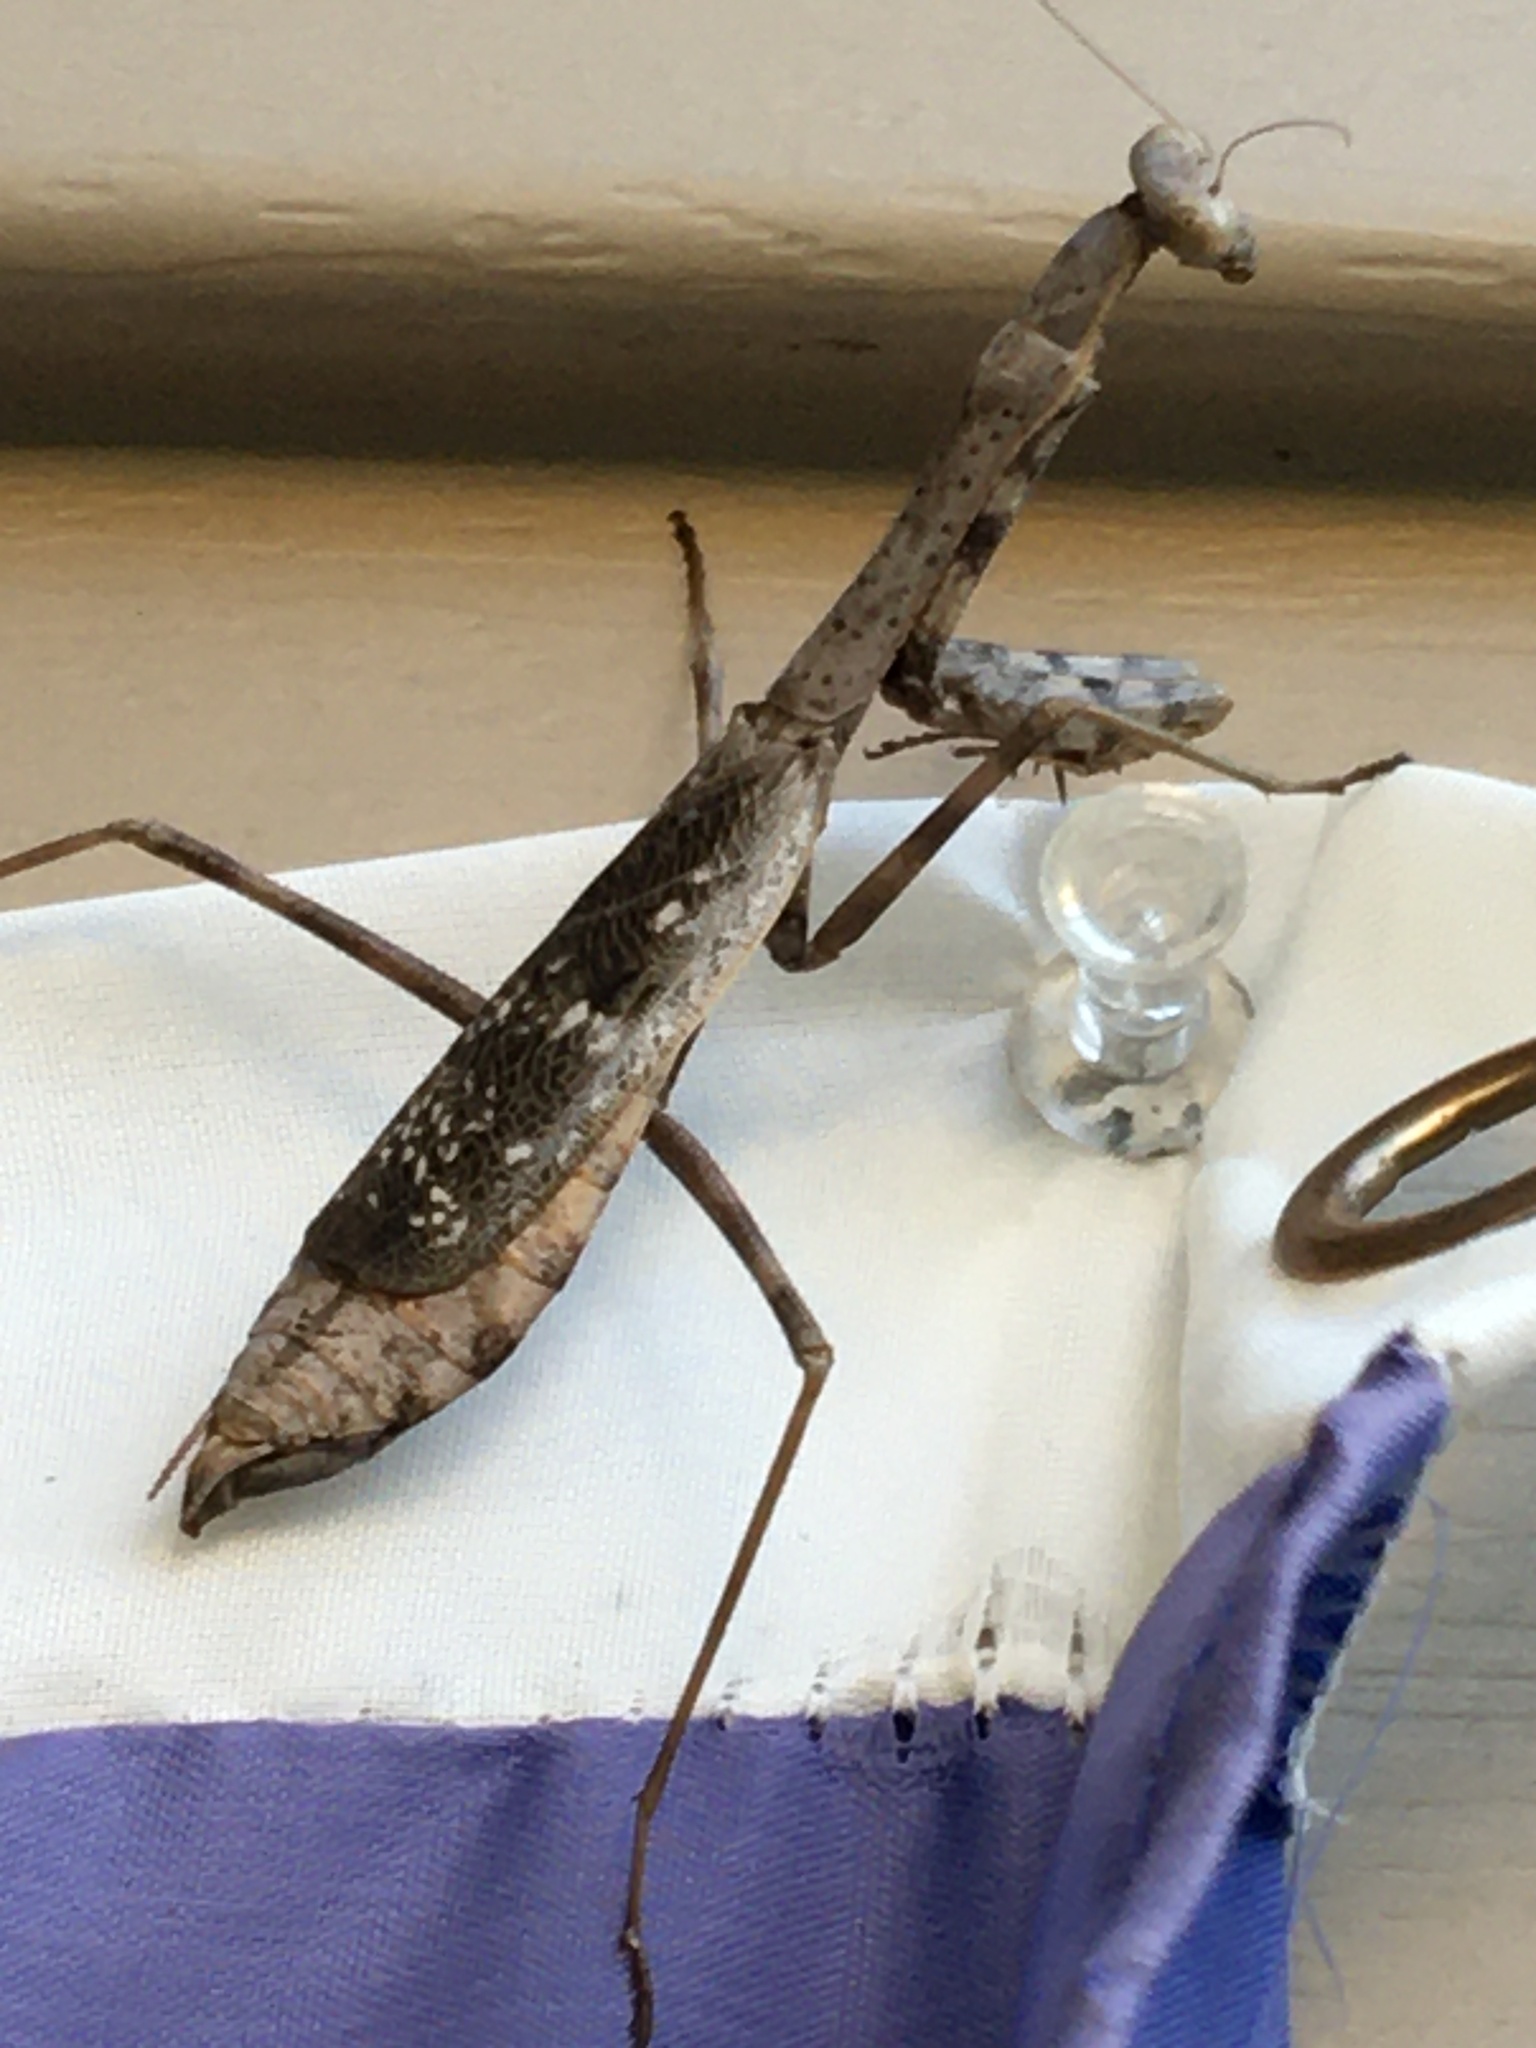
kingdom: Animalia
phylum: Arthropoda
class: Insecta
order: Mantodea
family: Mantidae
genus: Stagmomantis
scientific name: Stagmomantis carolina
